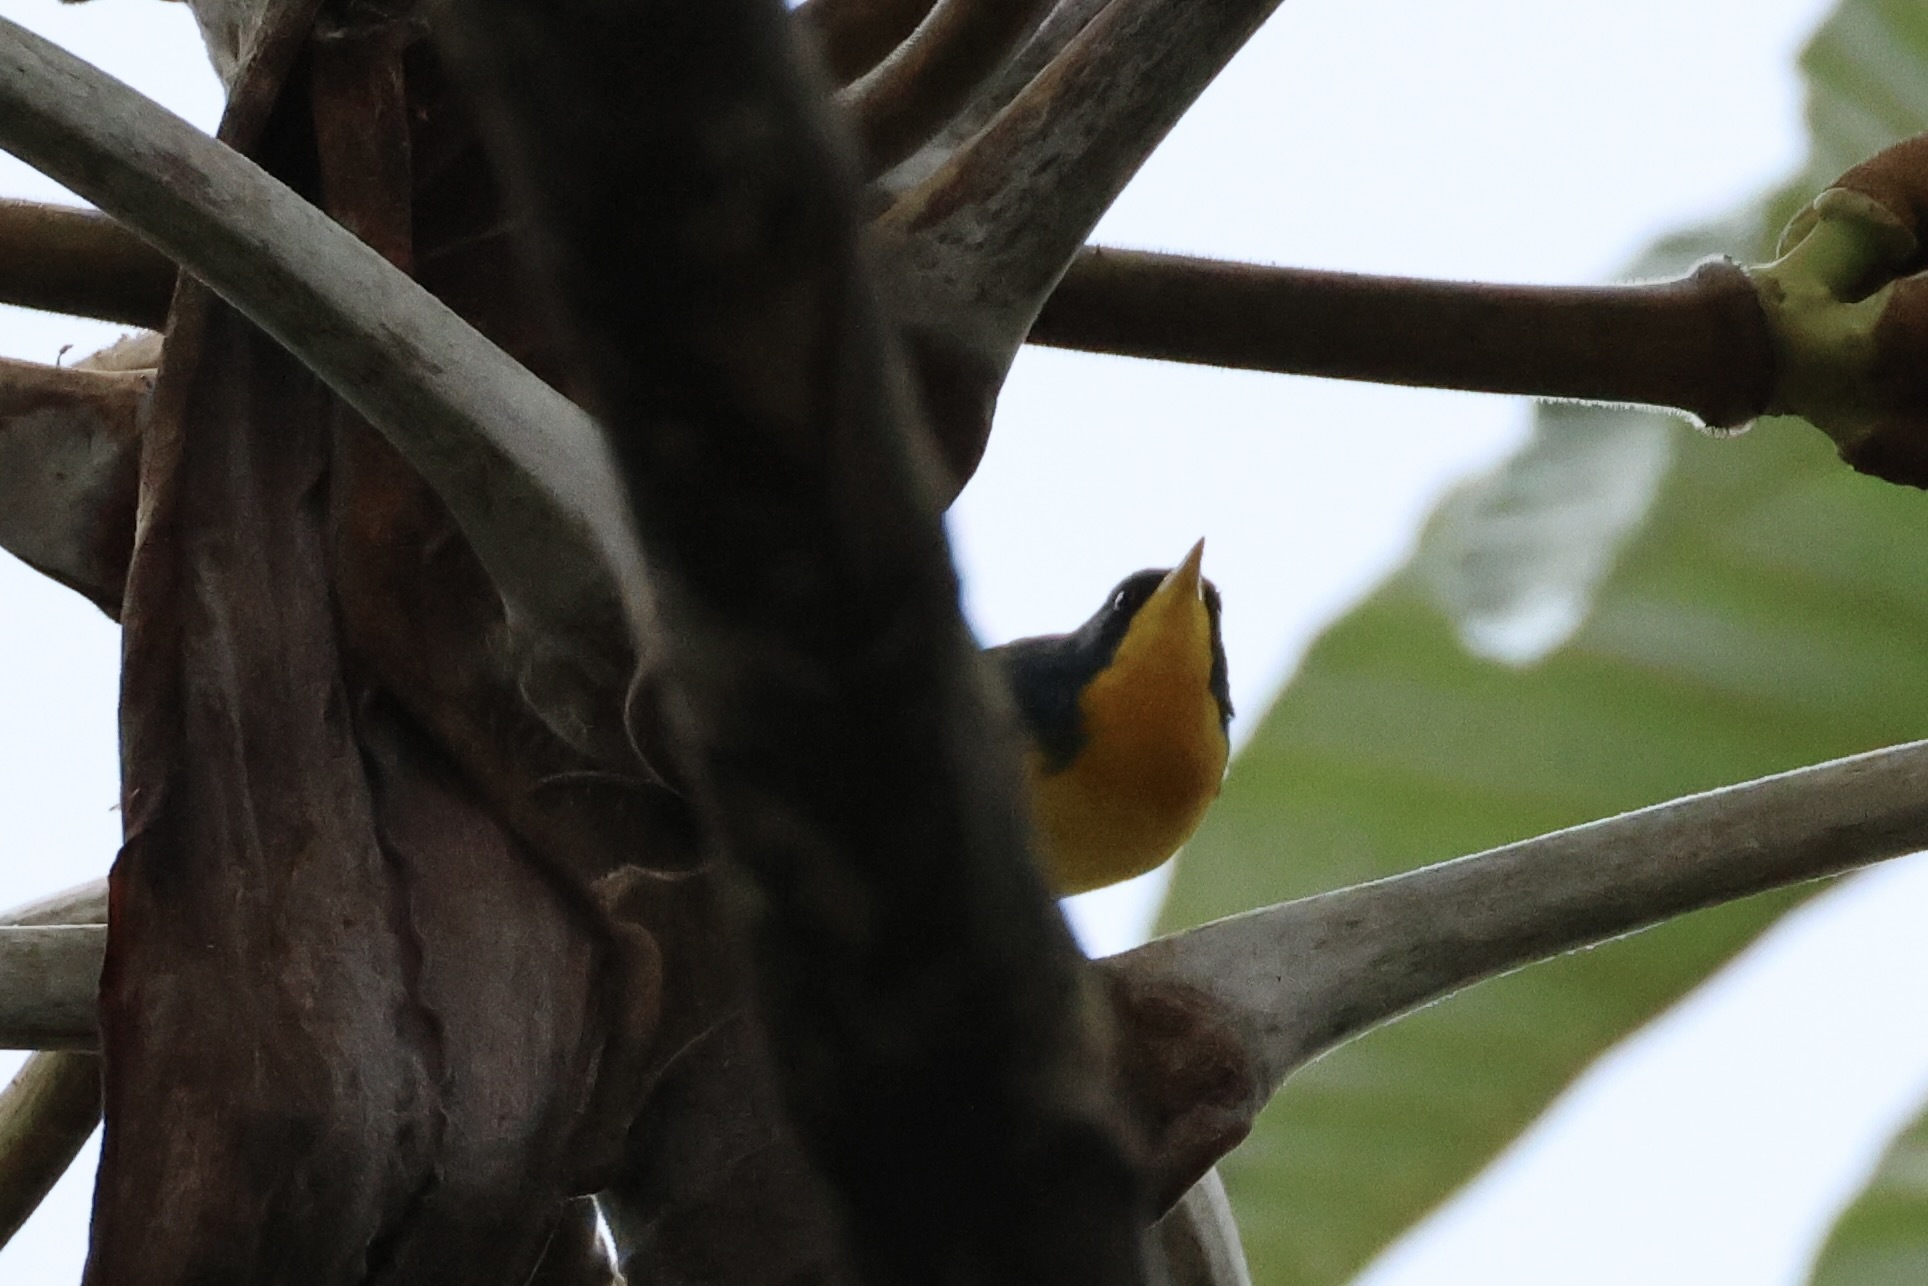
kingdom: Animalia
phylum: Chordata
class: Aves
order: Passeriformes
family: Parulidae
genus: Setophaga
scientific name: Setophaga pitiayumi
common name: Tropical parula
